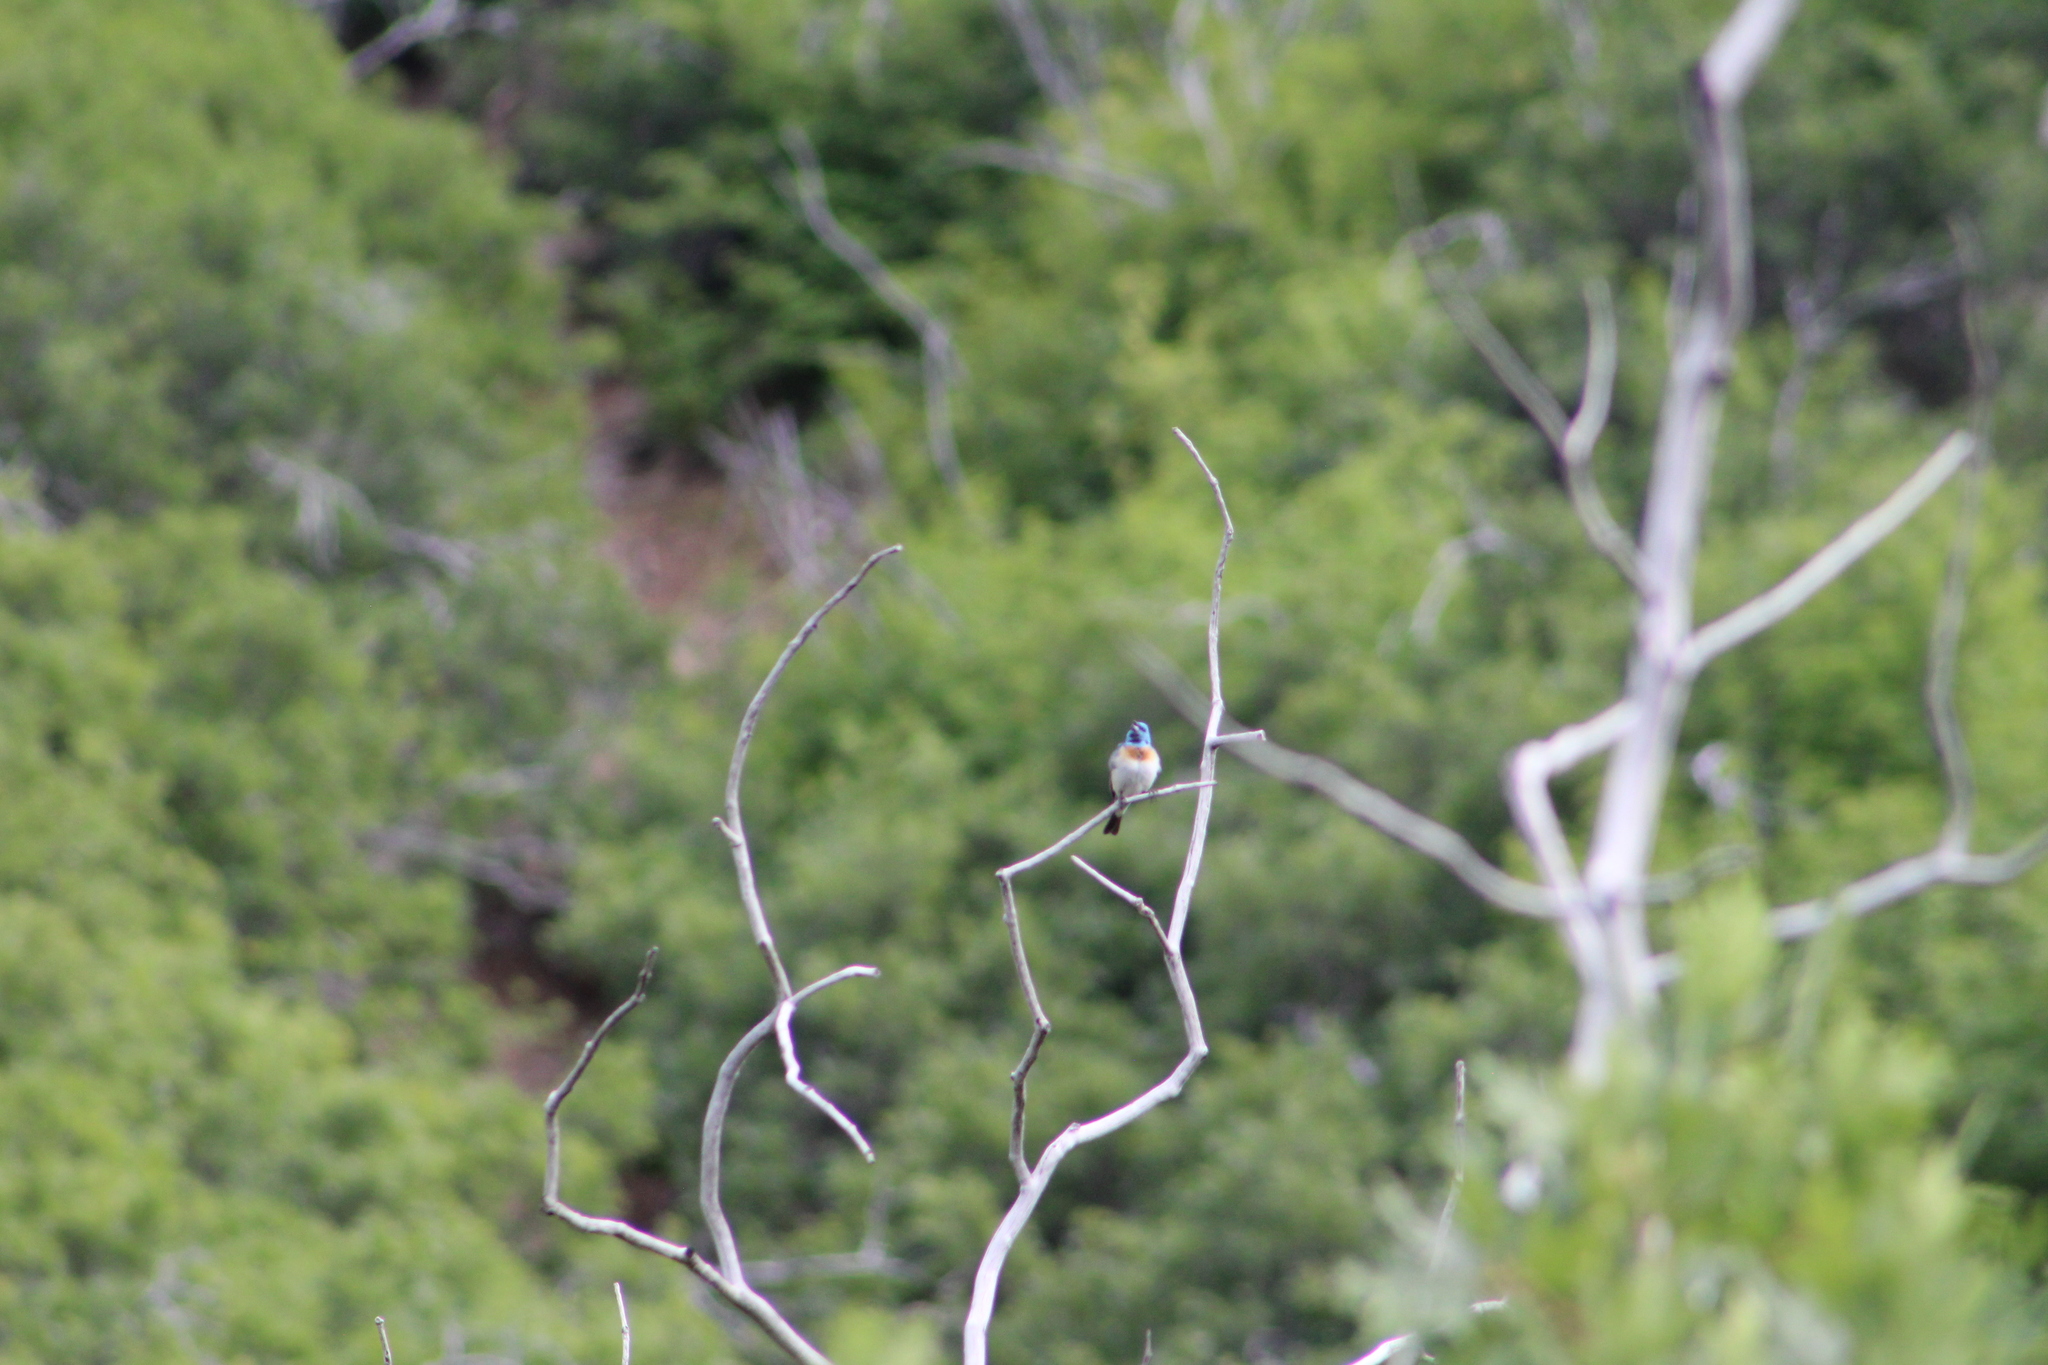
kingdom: Animalia
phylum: Chordata
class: Aves
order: Passeriformes
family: Cardinalidae
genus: Passerina
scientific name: Passerina amoena
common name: Lazuli bunting
